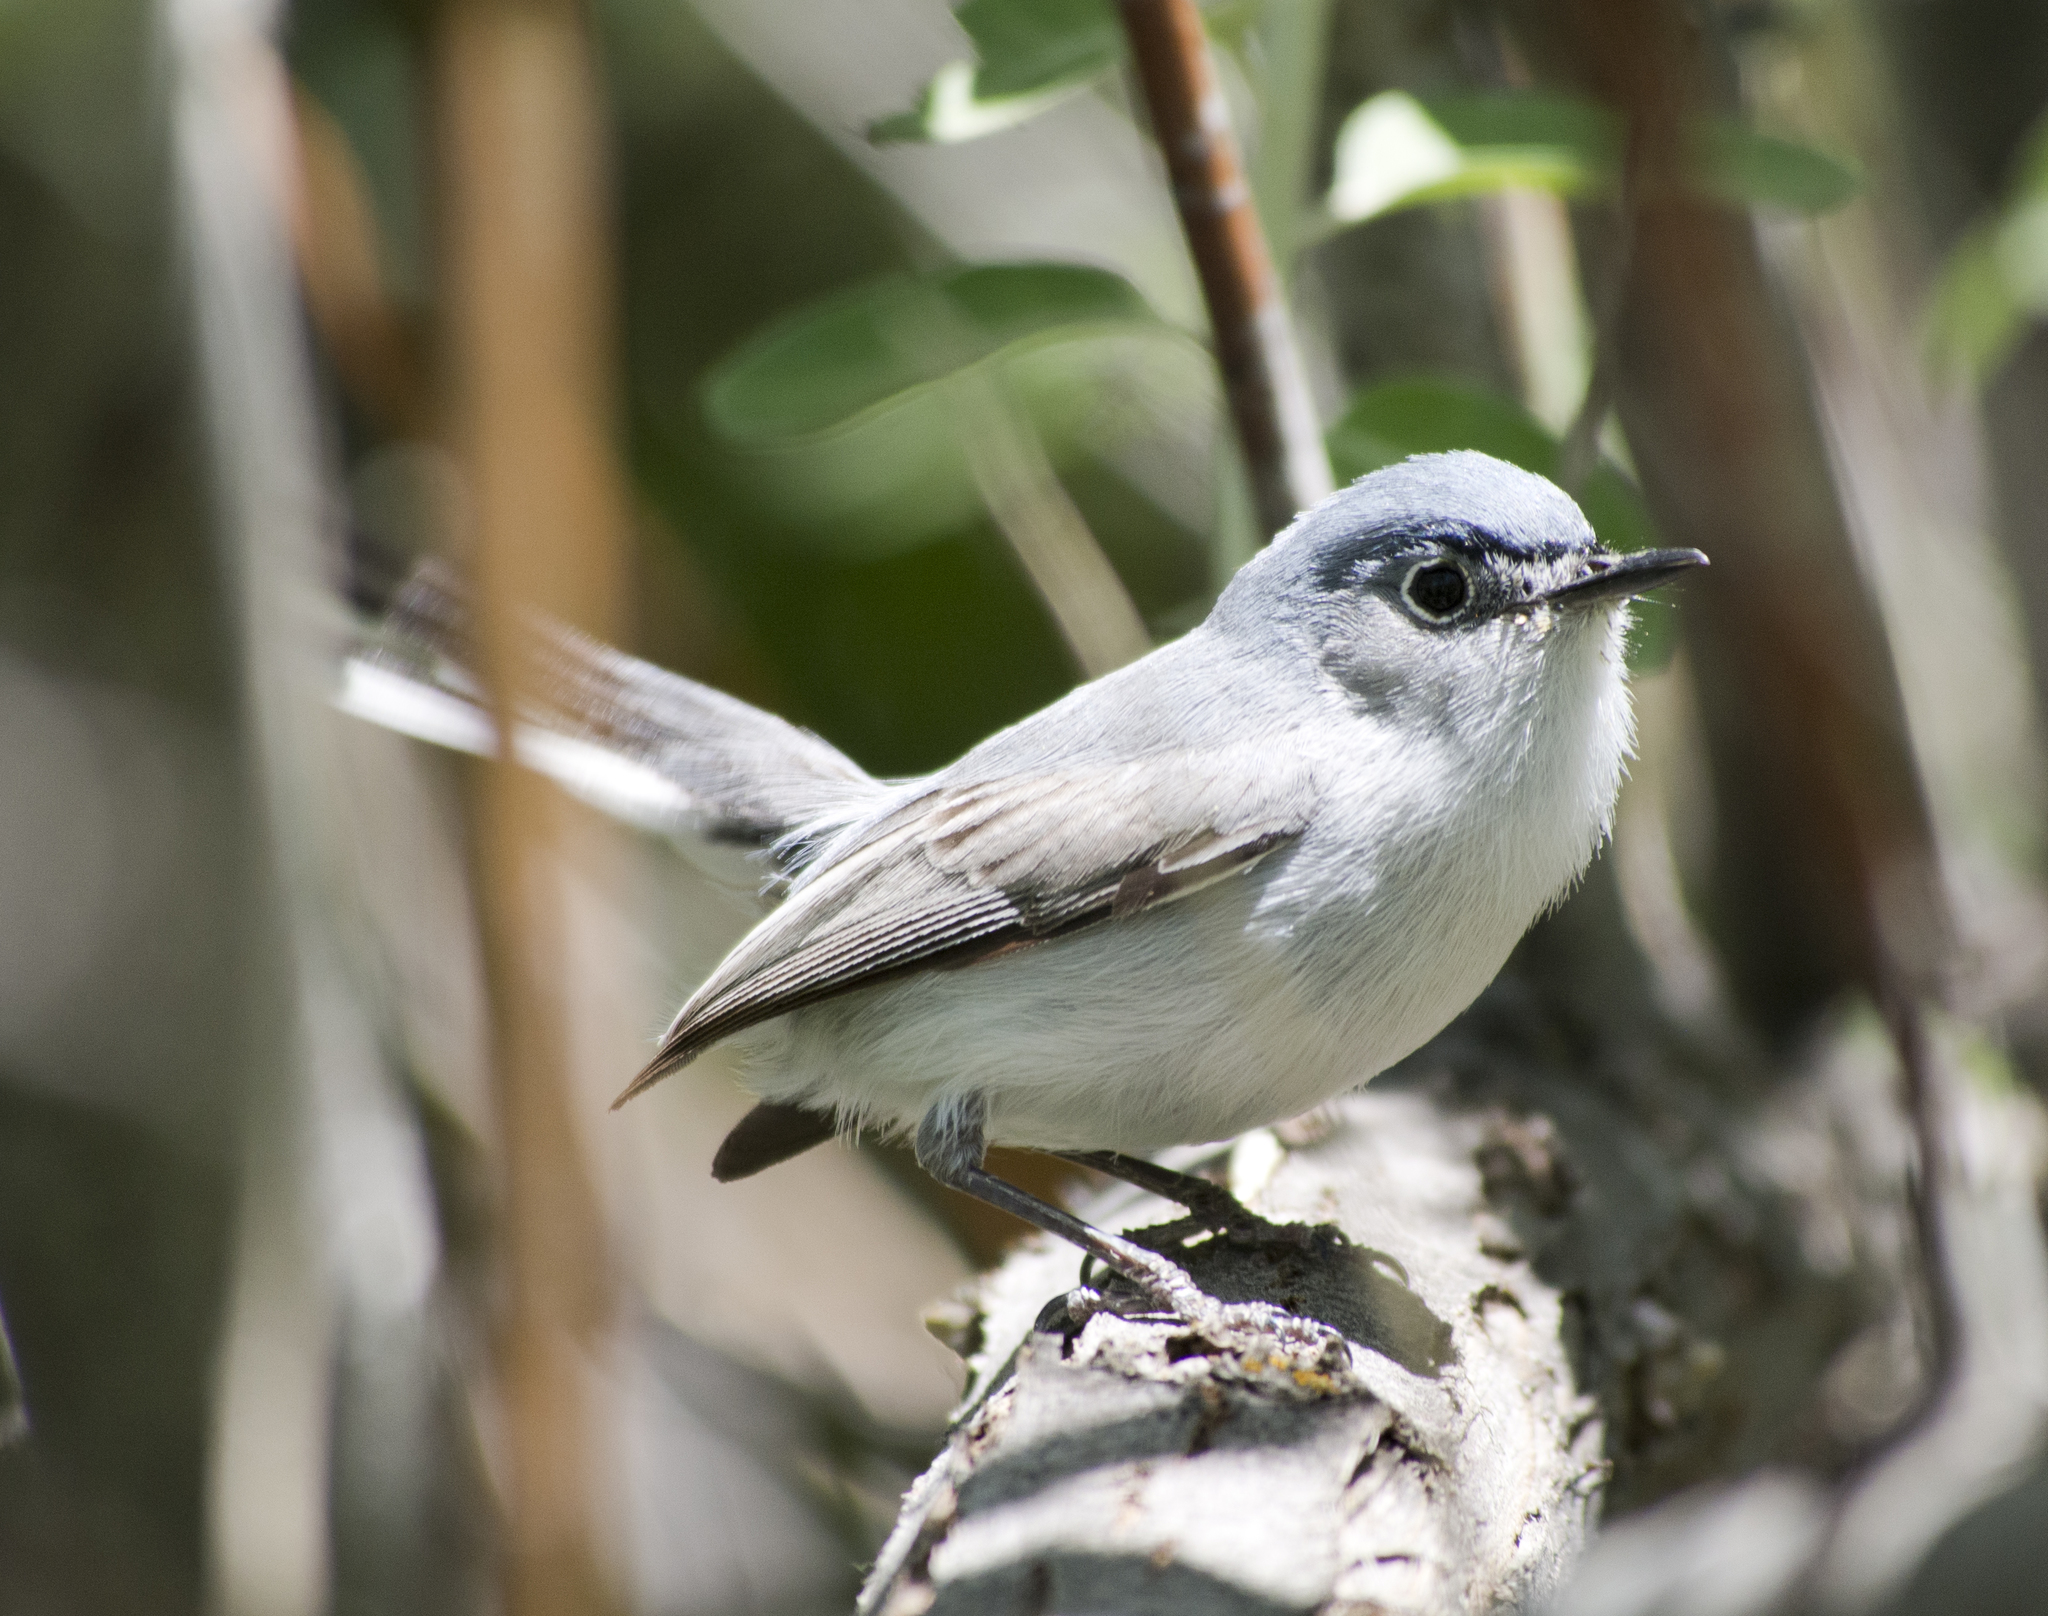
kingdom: Animalia
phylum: Chordata
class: Aves
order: Passeriformes
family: Polioptilidae
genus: Polioptila
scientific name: Polioptila caerulea
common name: Blue-gray gnatcatcher
